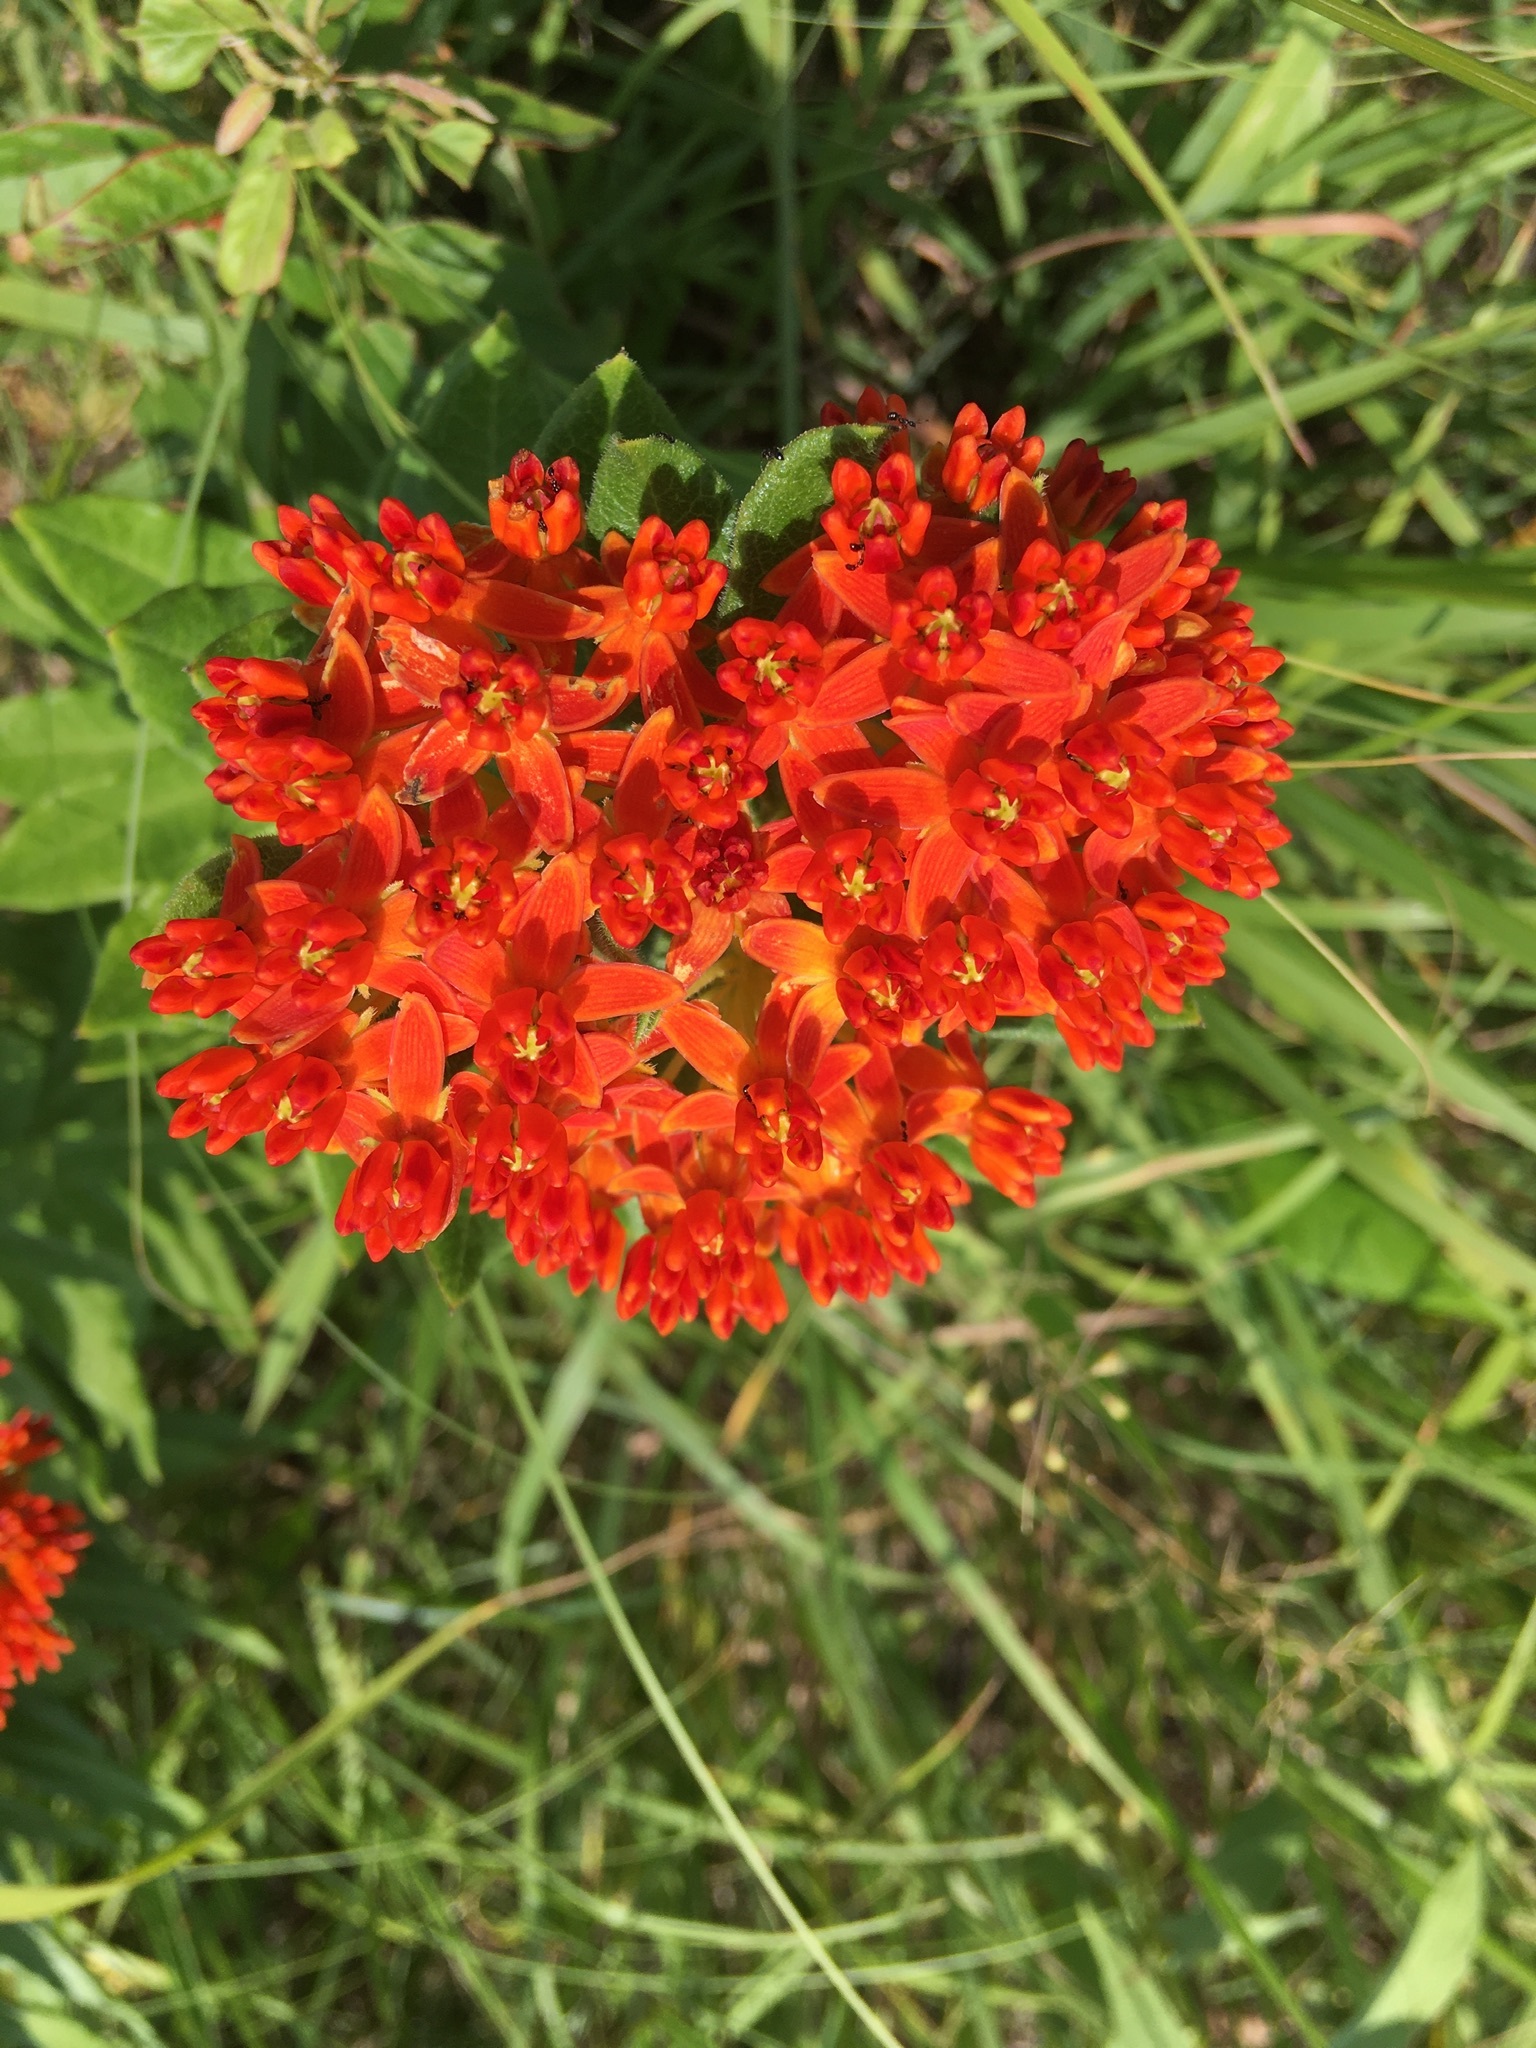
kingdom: Plantae
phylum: Tracheophyta
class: Magnoliopsida
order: Gentianales
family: Apocynaceae
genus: Asclepias
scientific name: Asclepias tuberosa
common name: Butterfly milkweed
